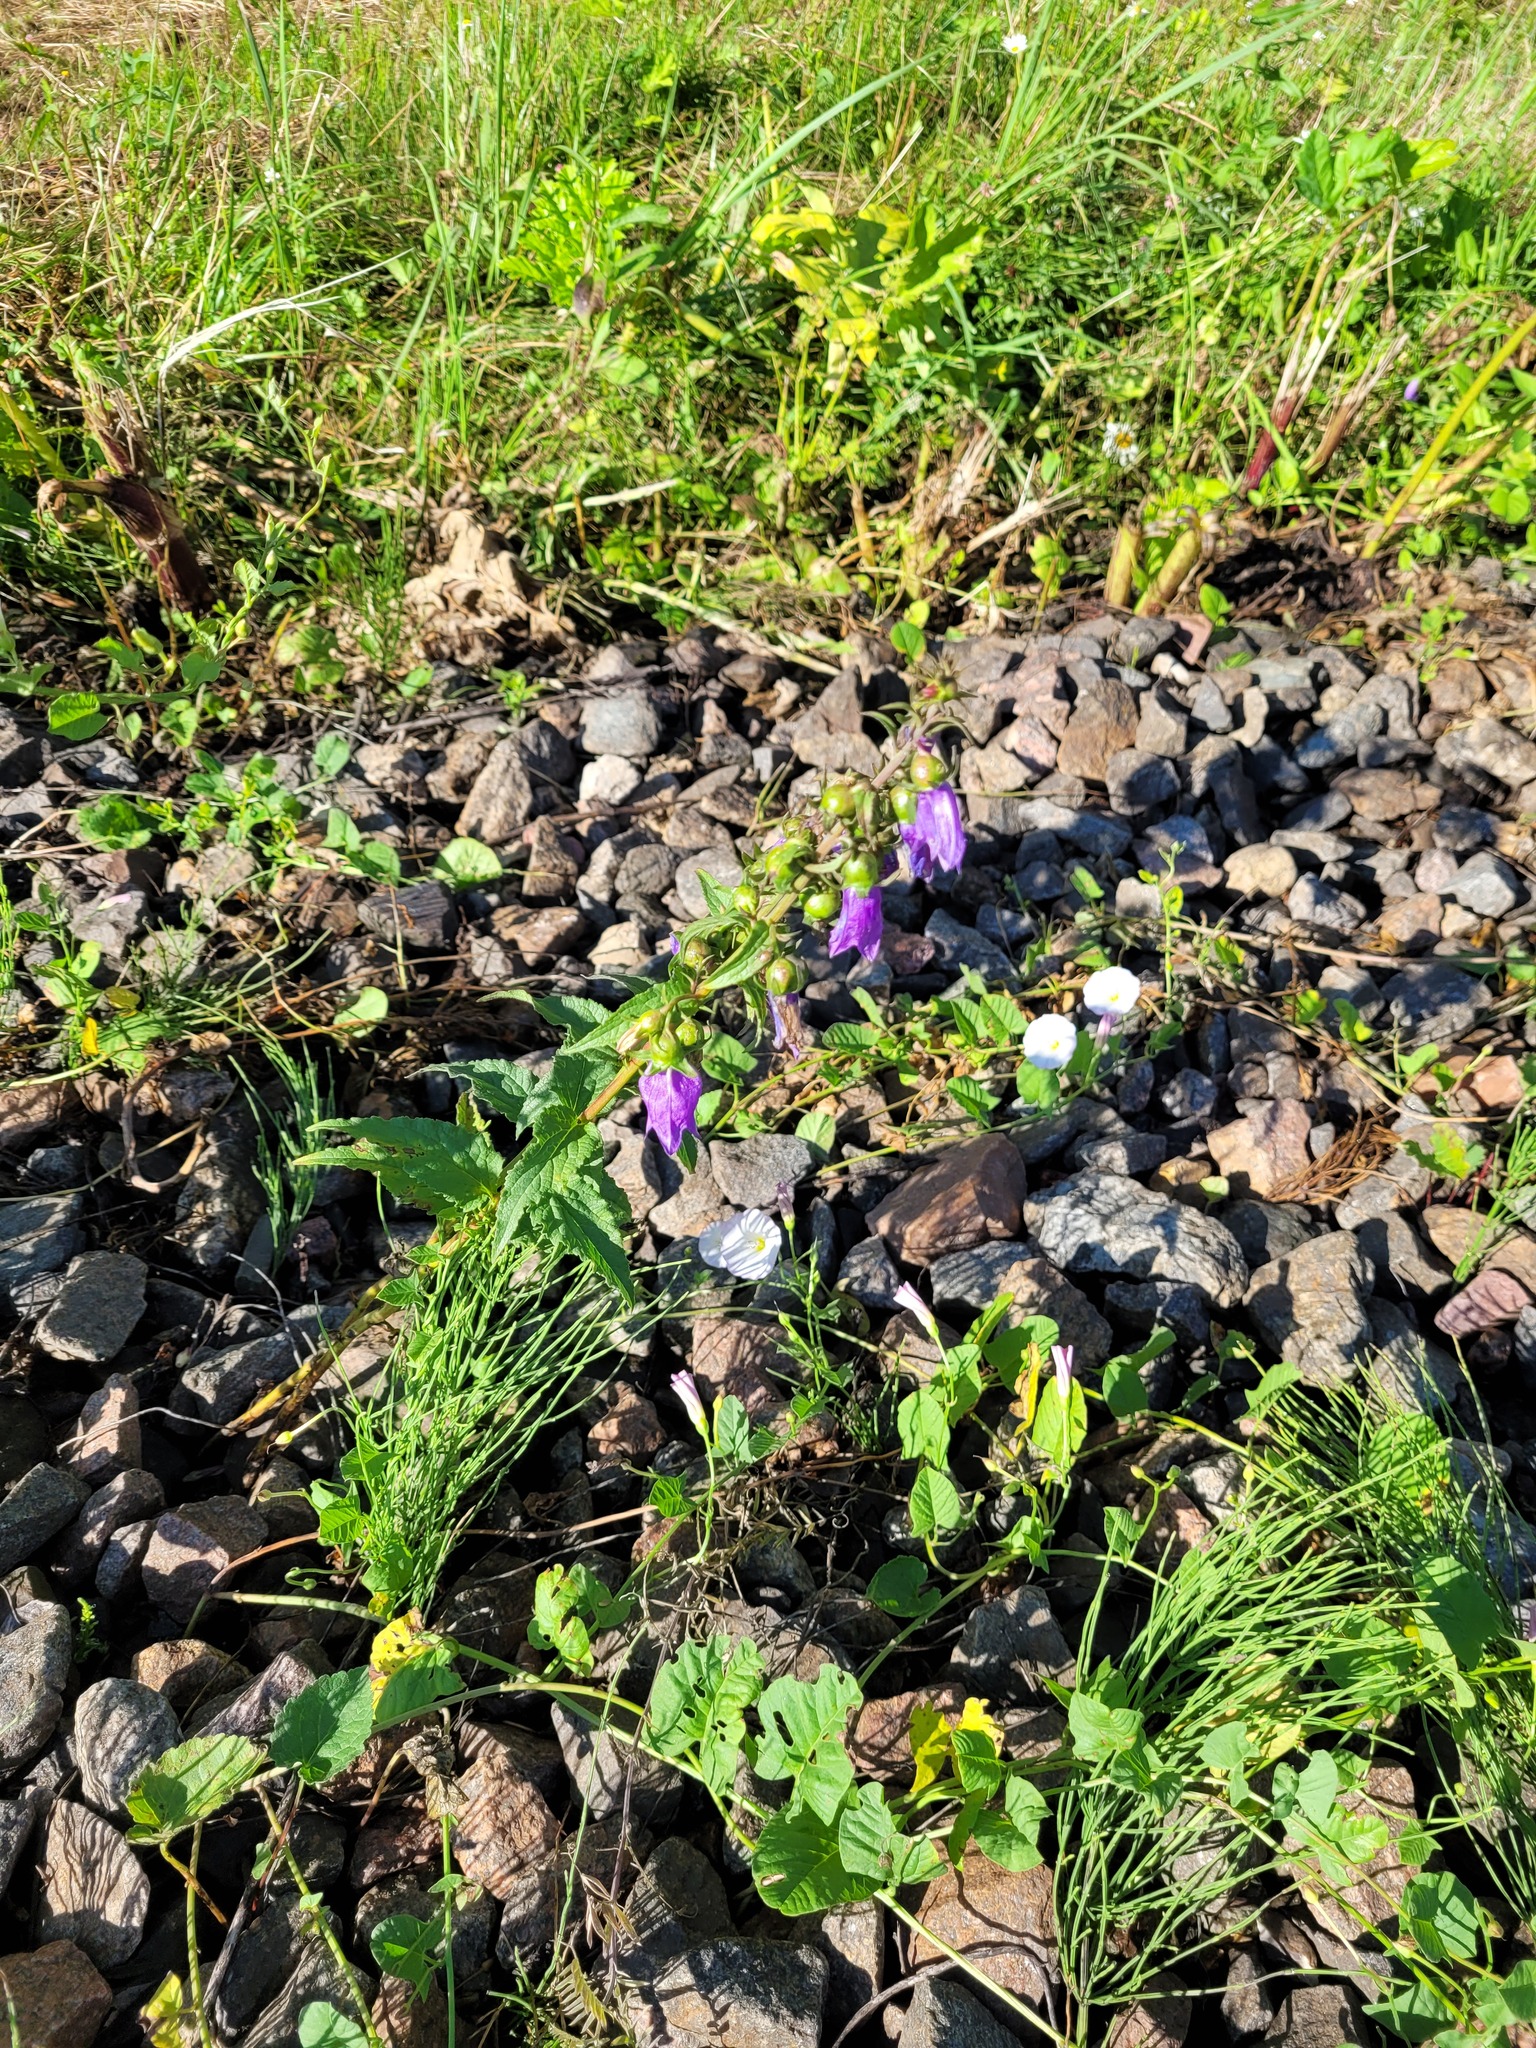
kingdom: Plantae
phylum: Tracheophyta
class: Magnoliopsida
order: Asterales
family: Campanulaceae
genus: Campanula
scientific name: Campanula rapunculoides
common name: Creeping bellflower
